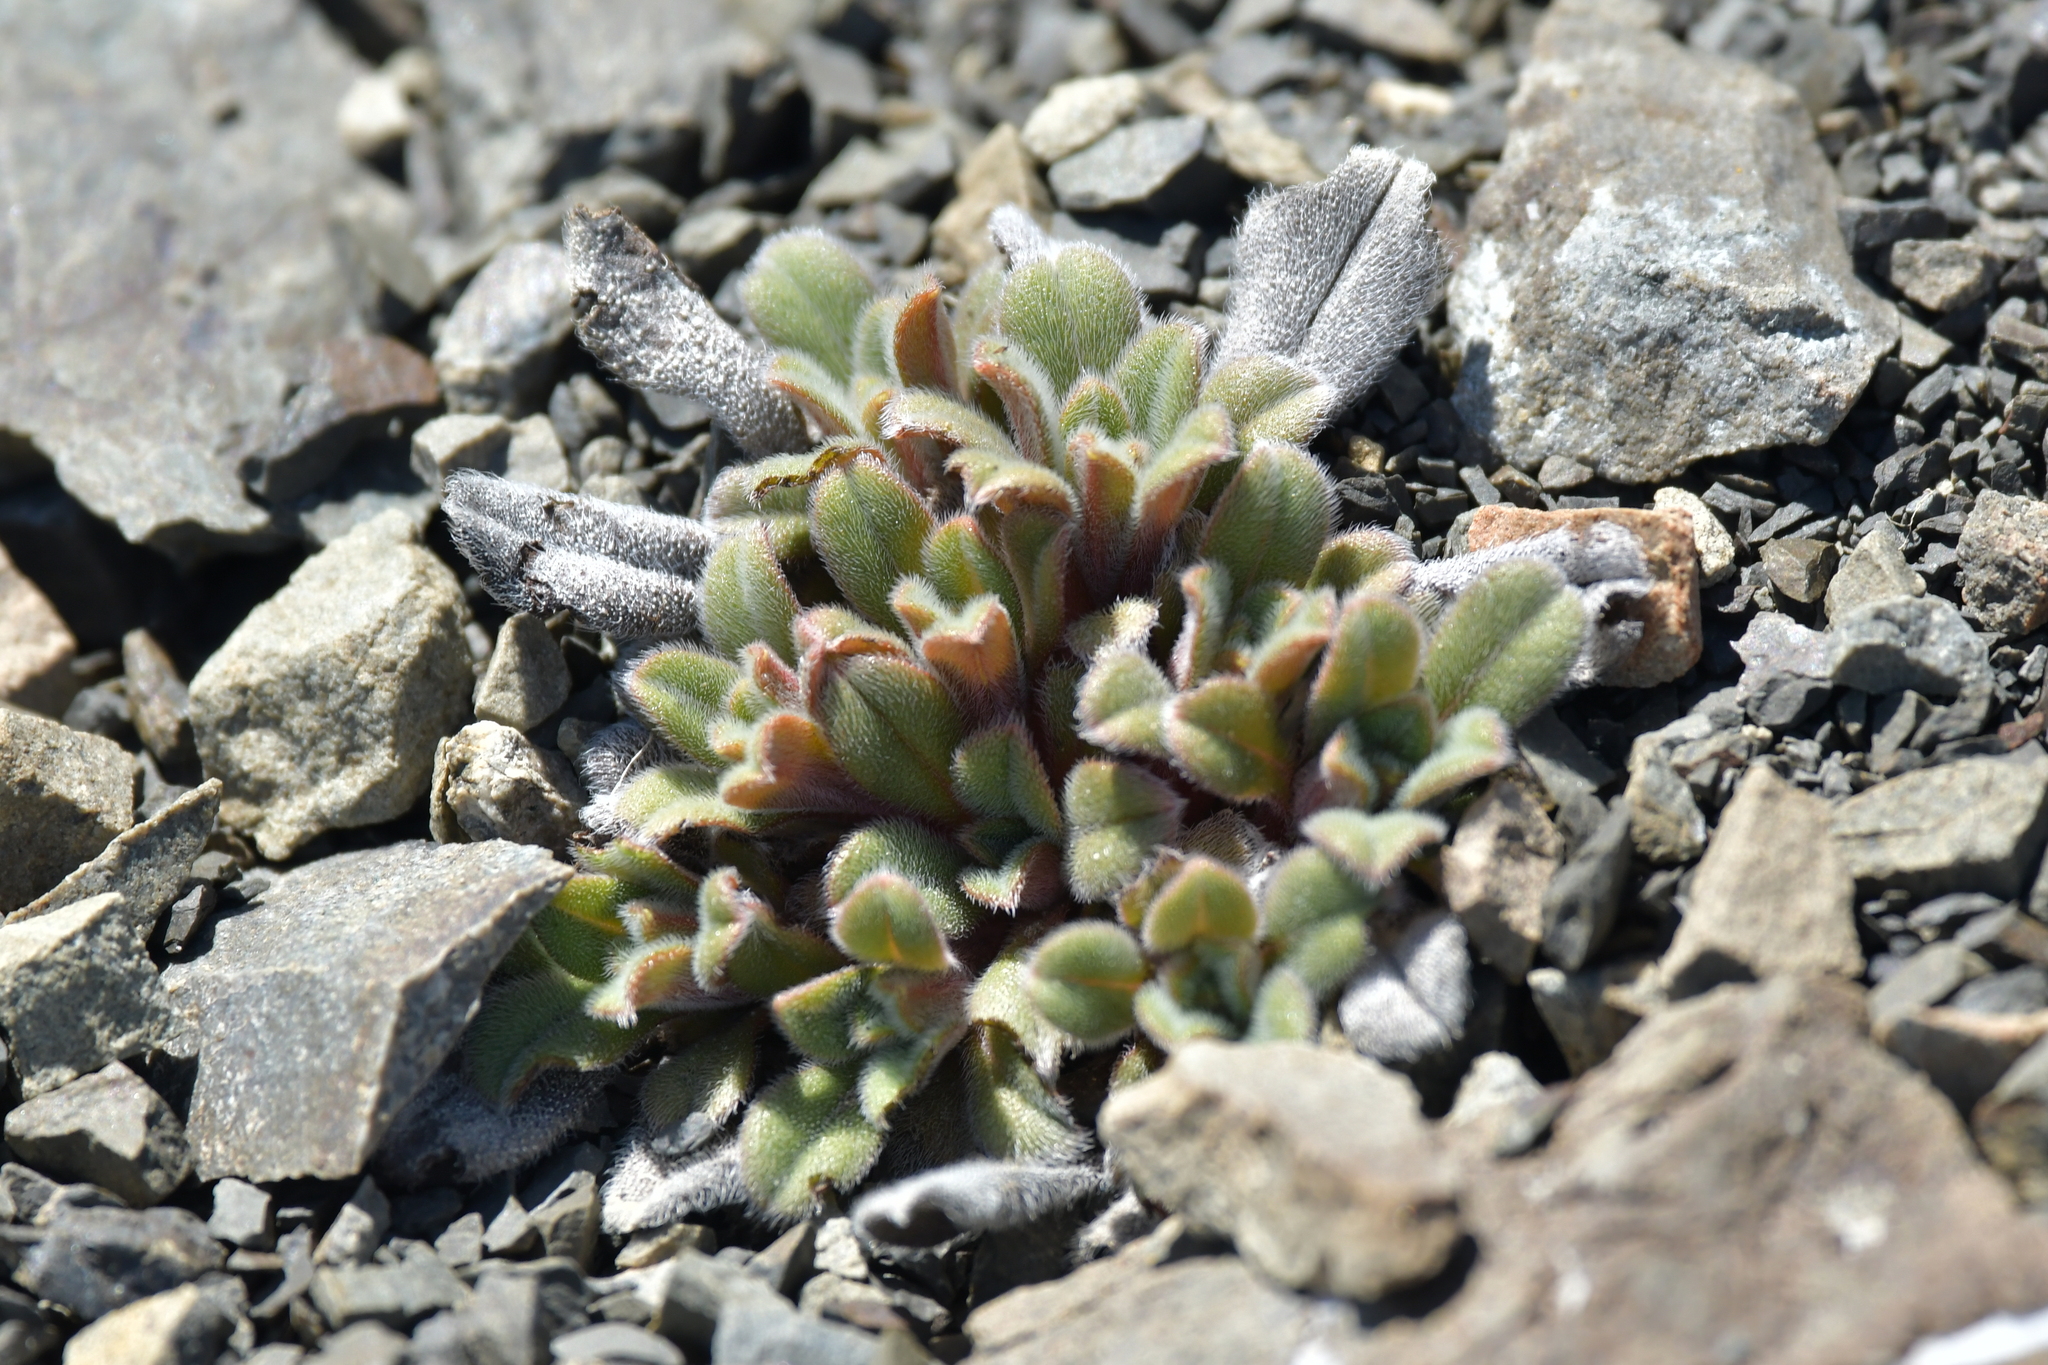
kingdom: Plantae
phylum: Tracheophyta
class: Magnoliopsida
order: Boraginales
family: Boraginaceae
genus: Myosotis
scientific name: Myosotis traversii
